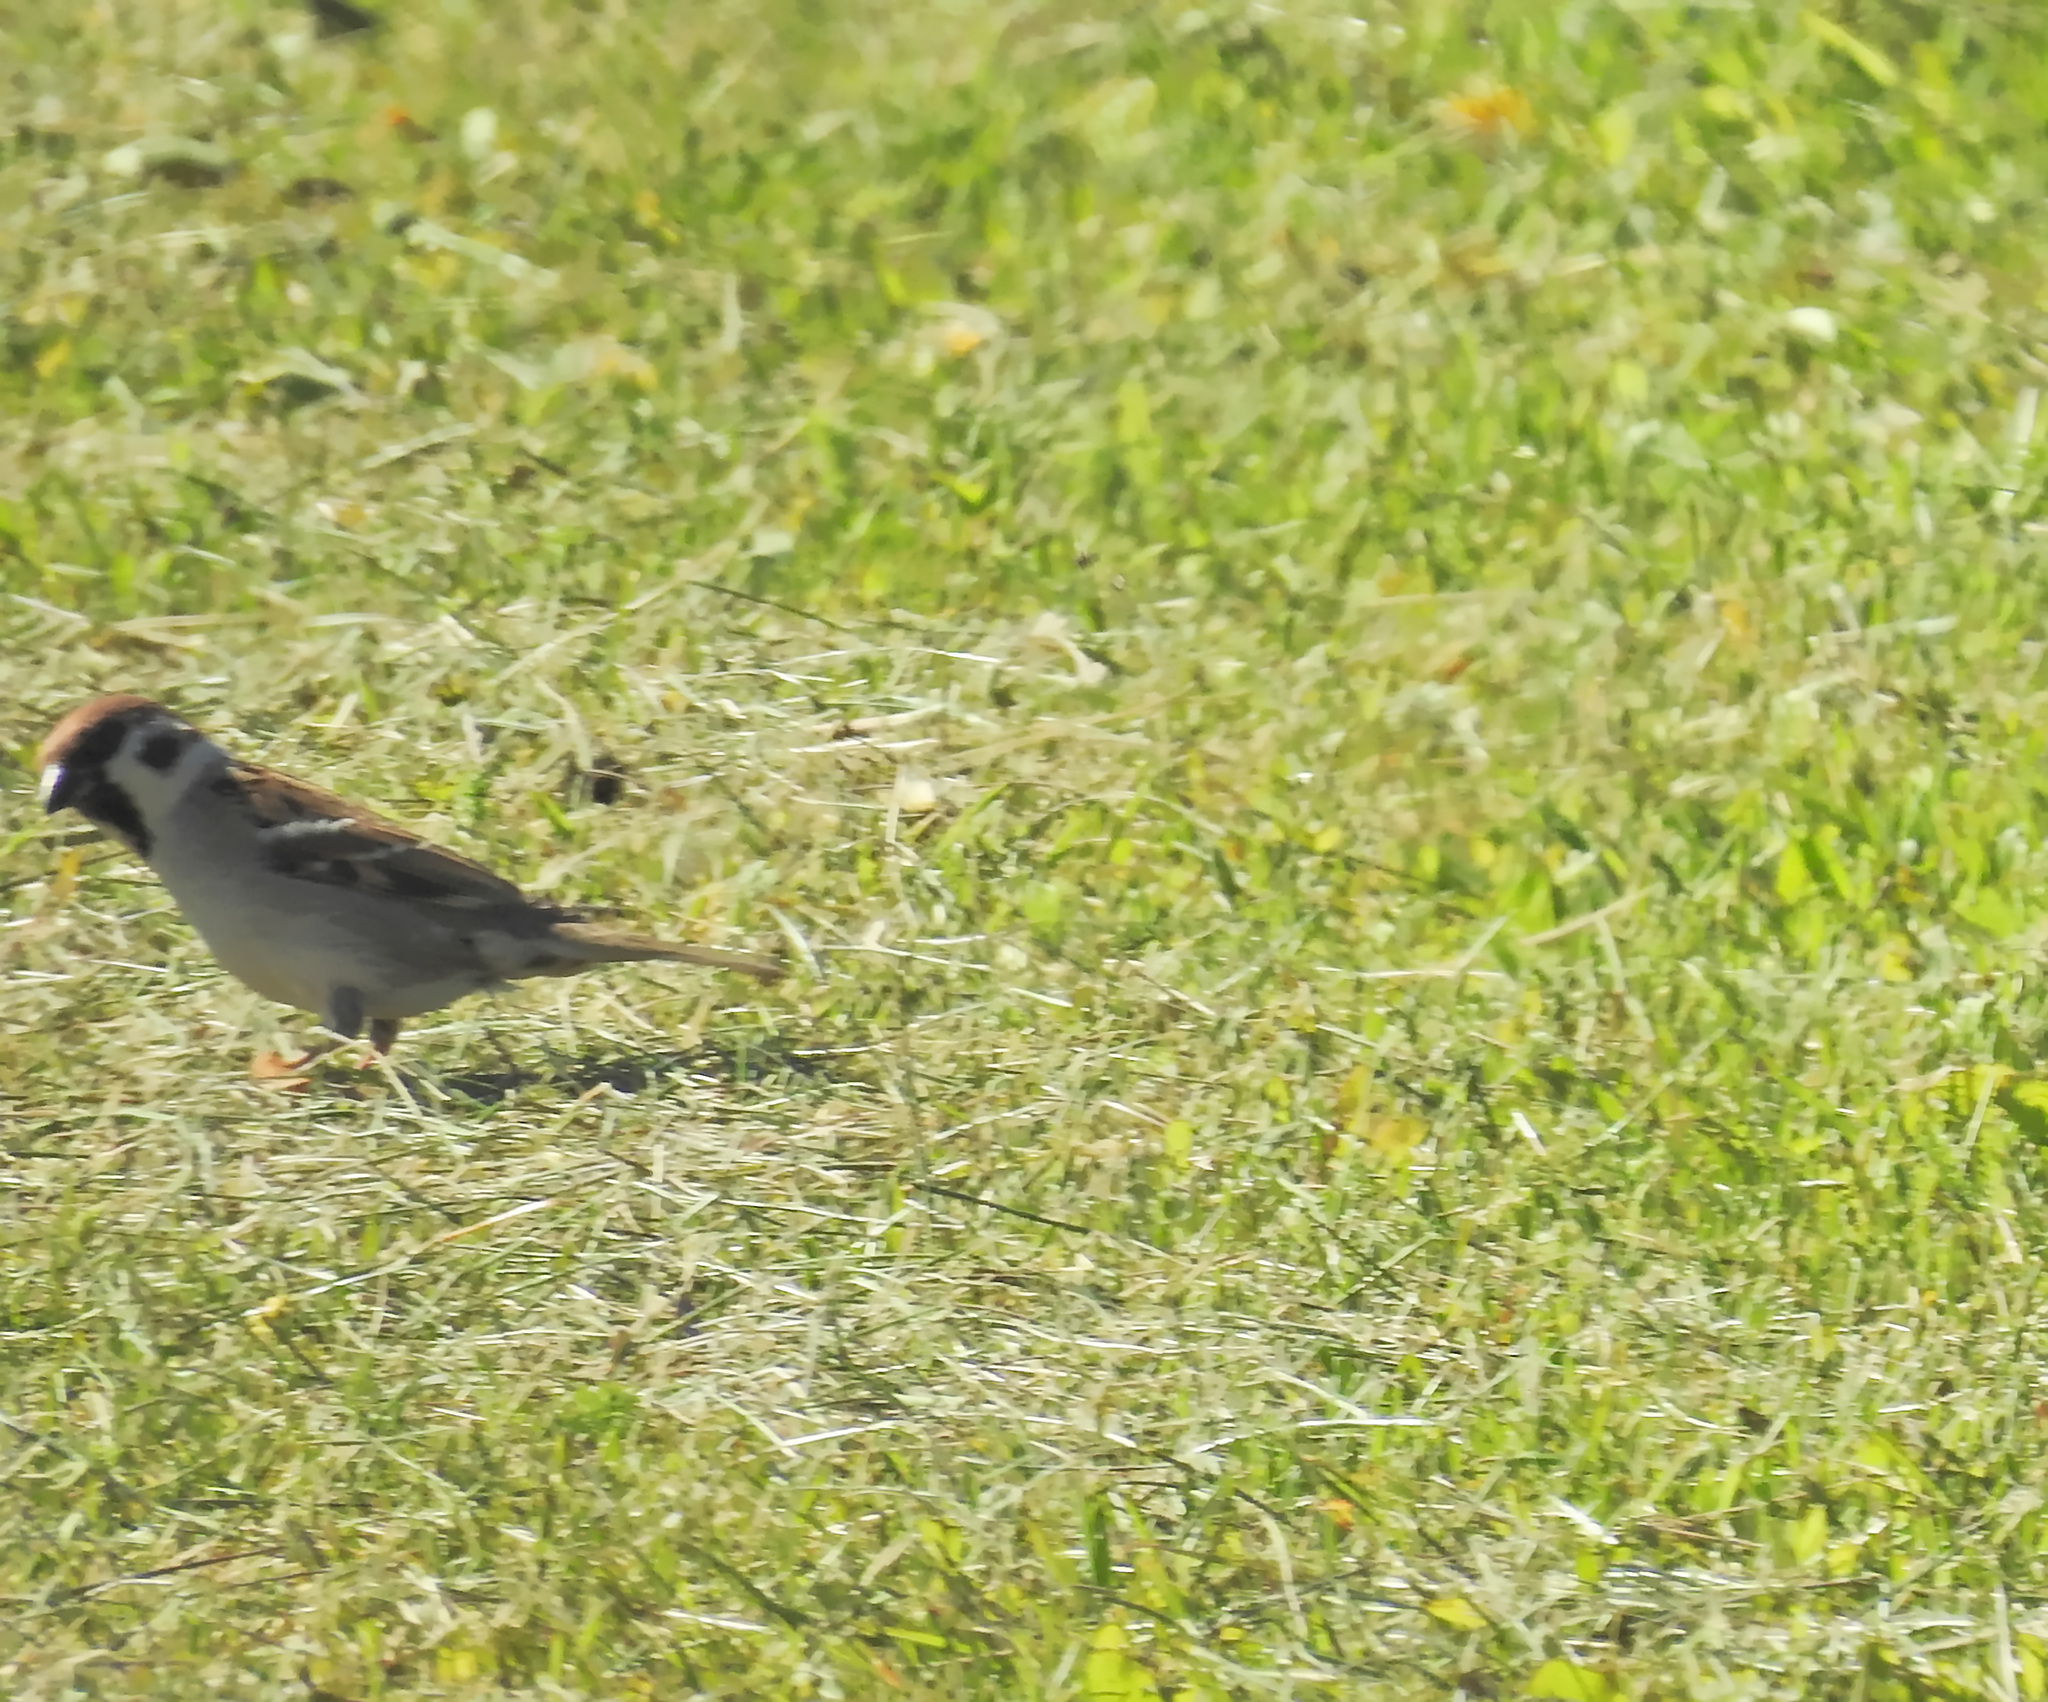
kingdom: Animalia
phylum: Chordata
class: Aves
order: Passeriformes
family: Passeridae
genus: Passer
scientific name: Passer montanus
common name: Eurasian tree sparrow
